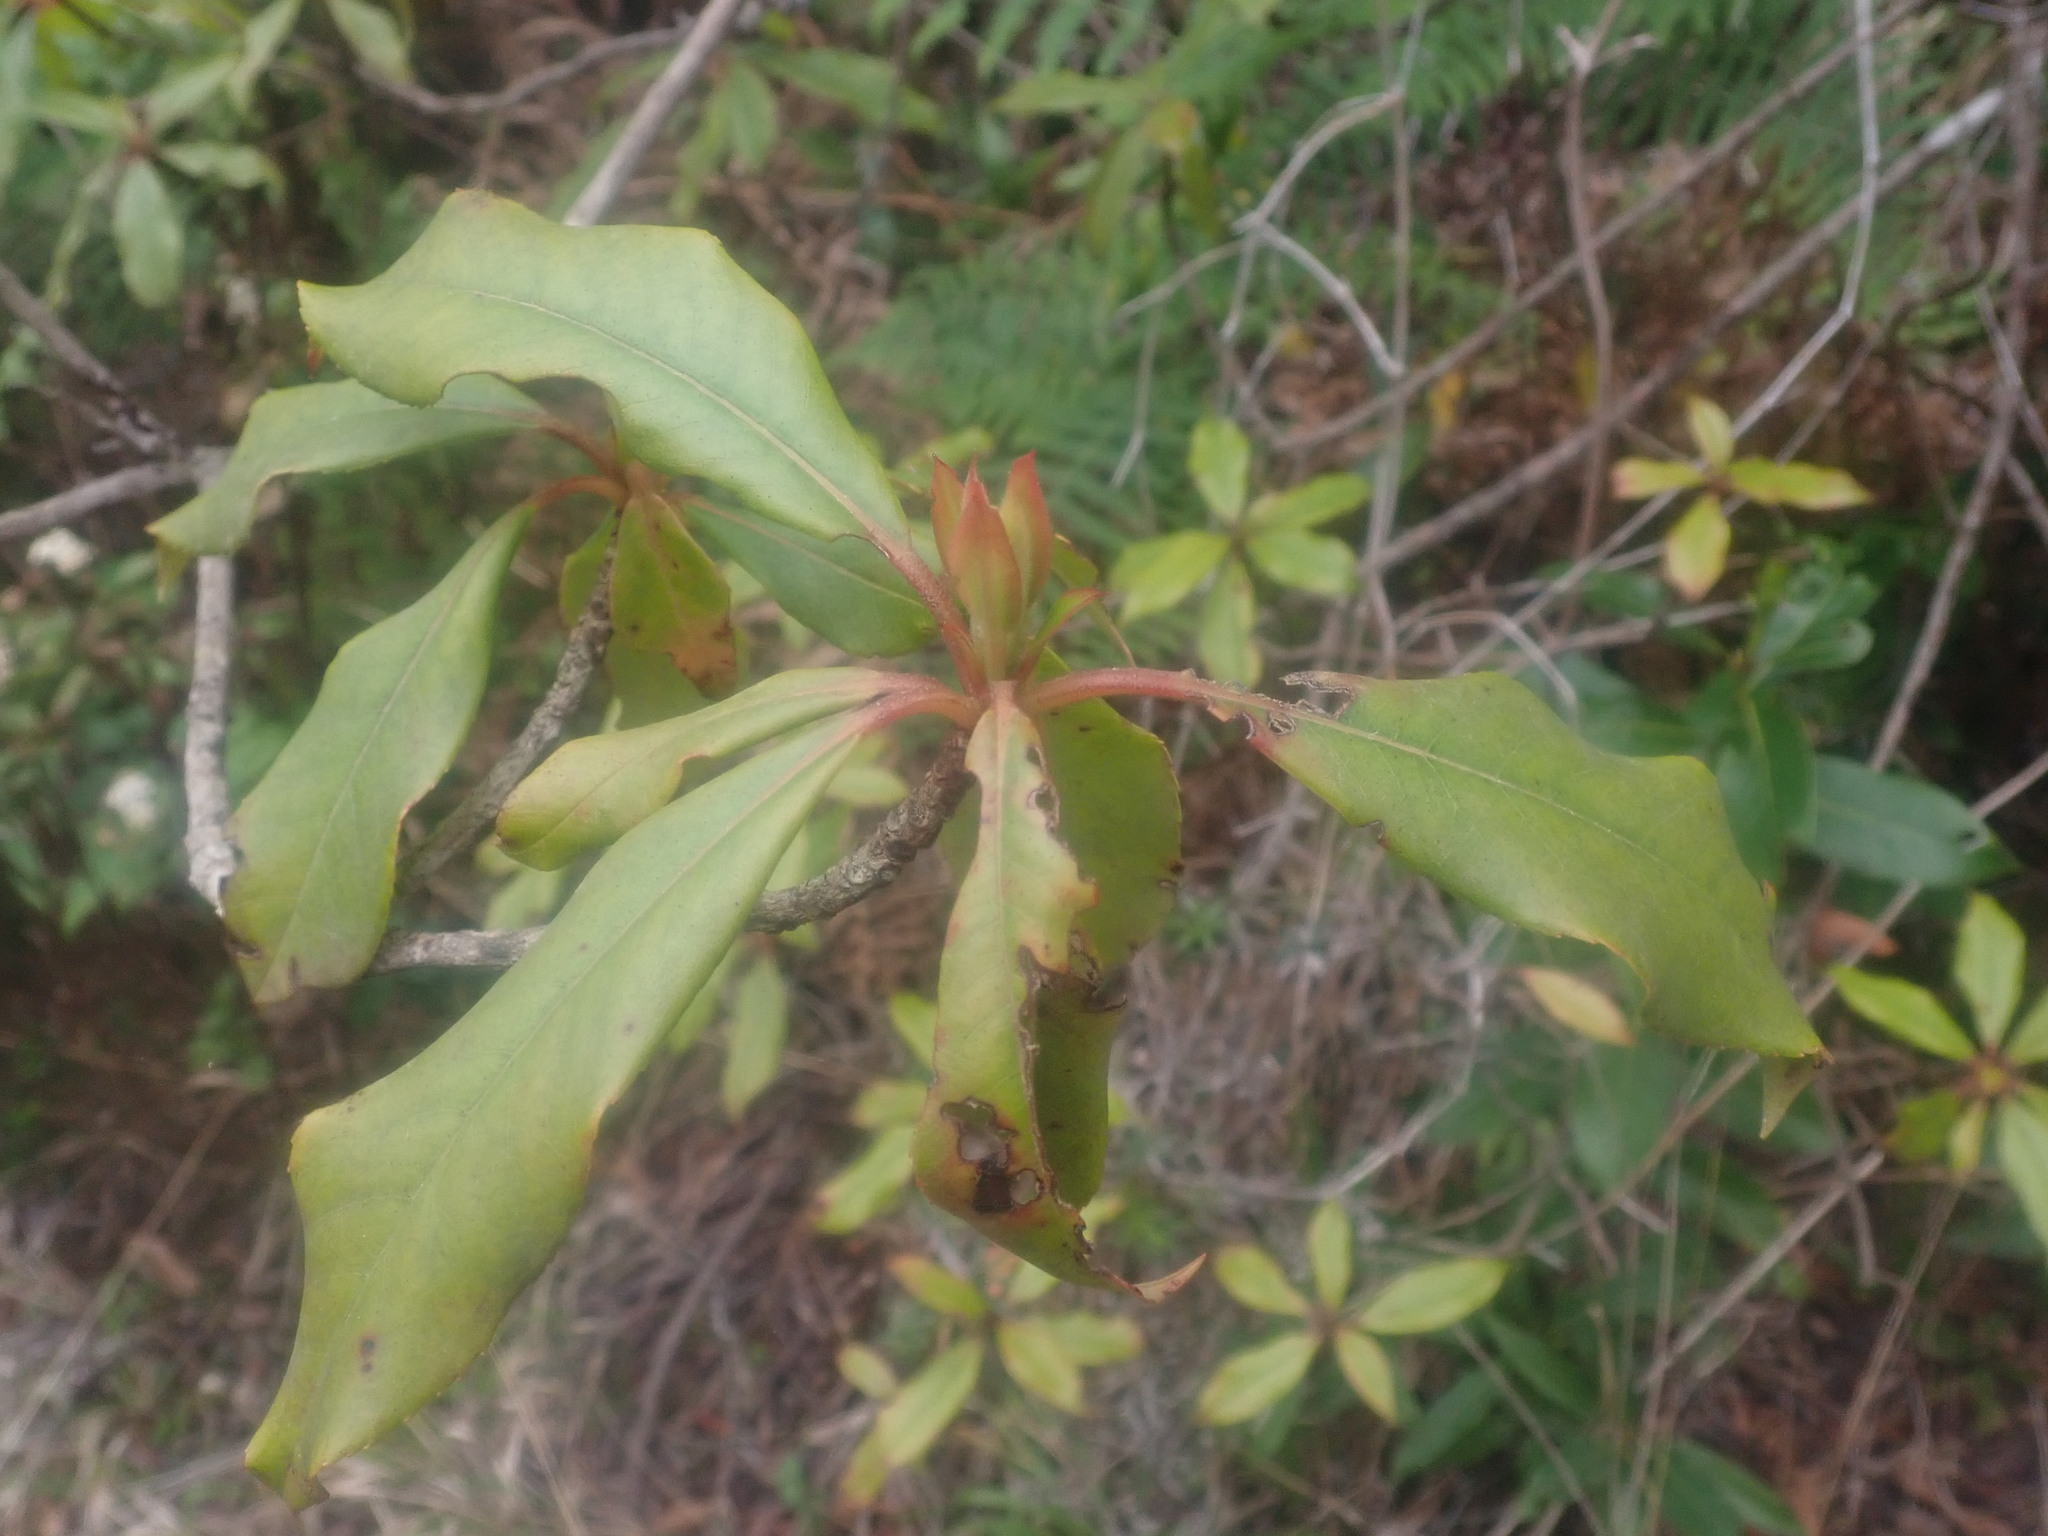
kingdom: Plantae
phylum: Tracheophyta
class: Magnoliopsida
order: Ericales
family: Clethraceae
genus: Clethra
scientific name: Clethra arborea
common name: Lily-of-the-valley-tree
